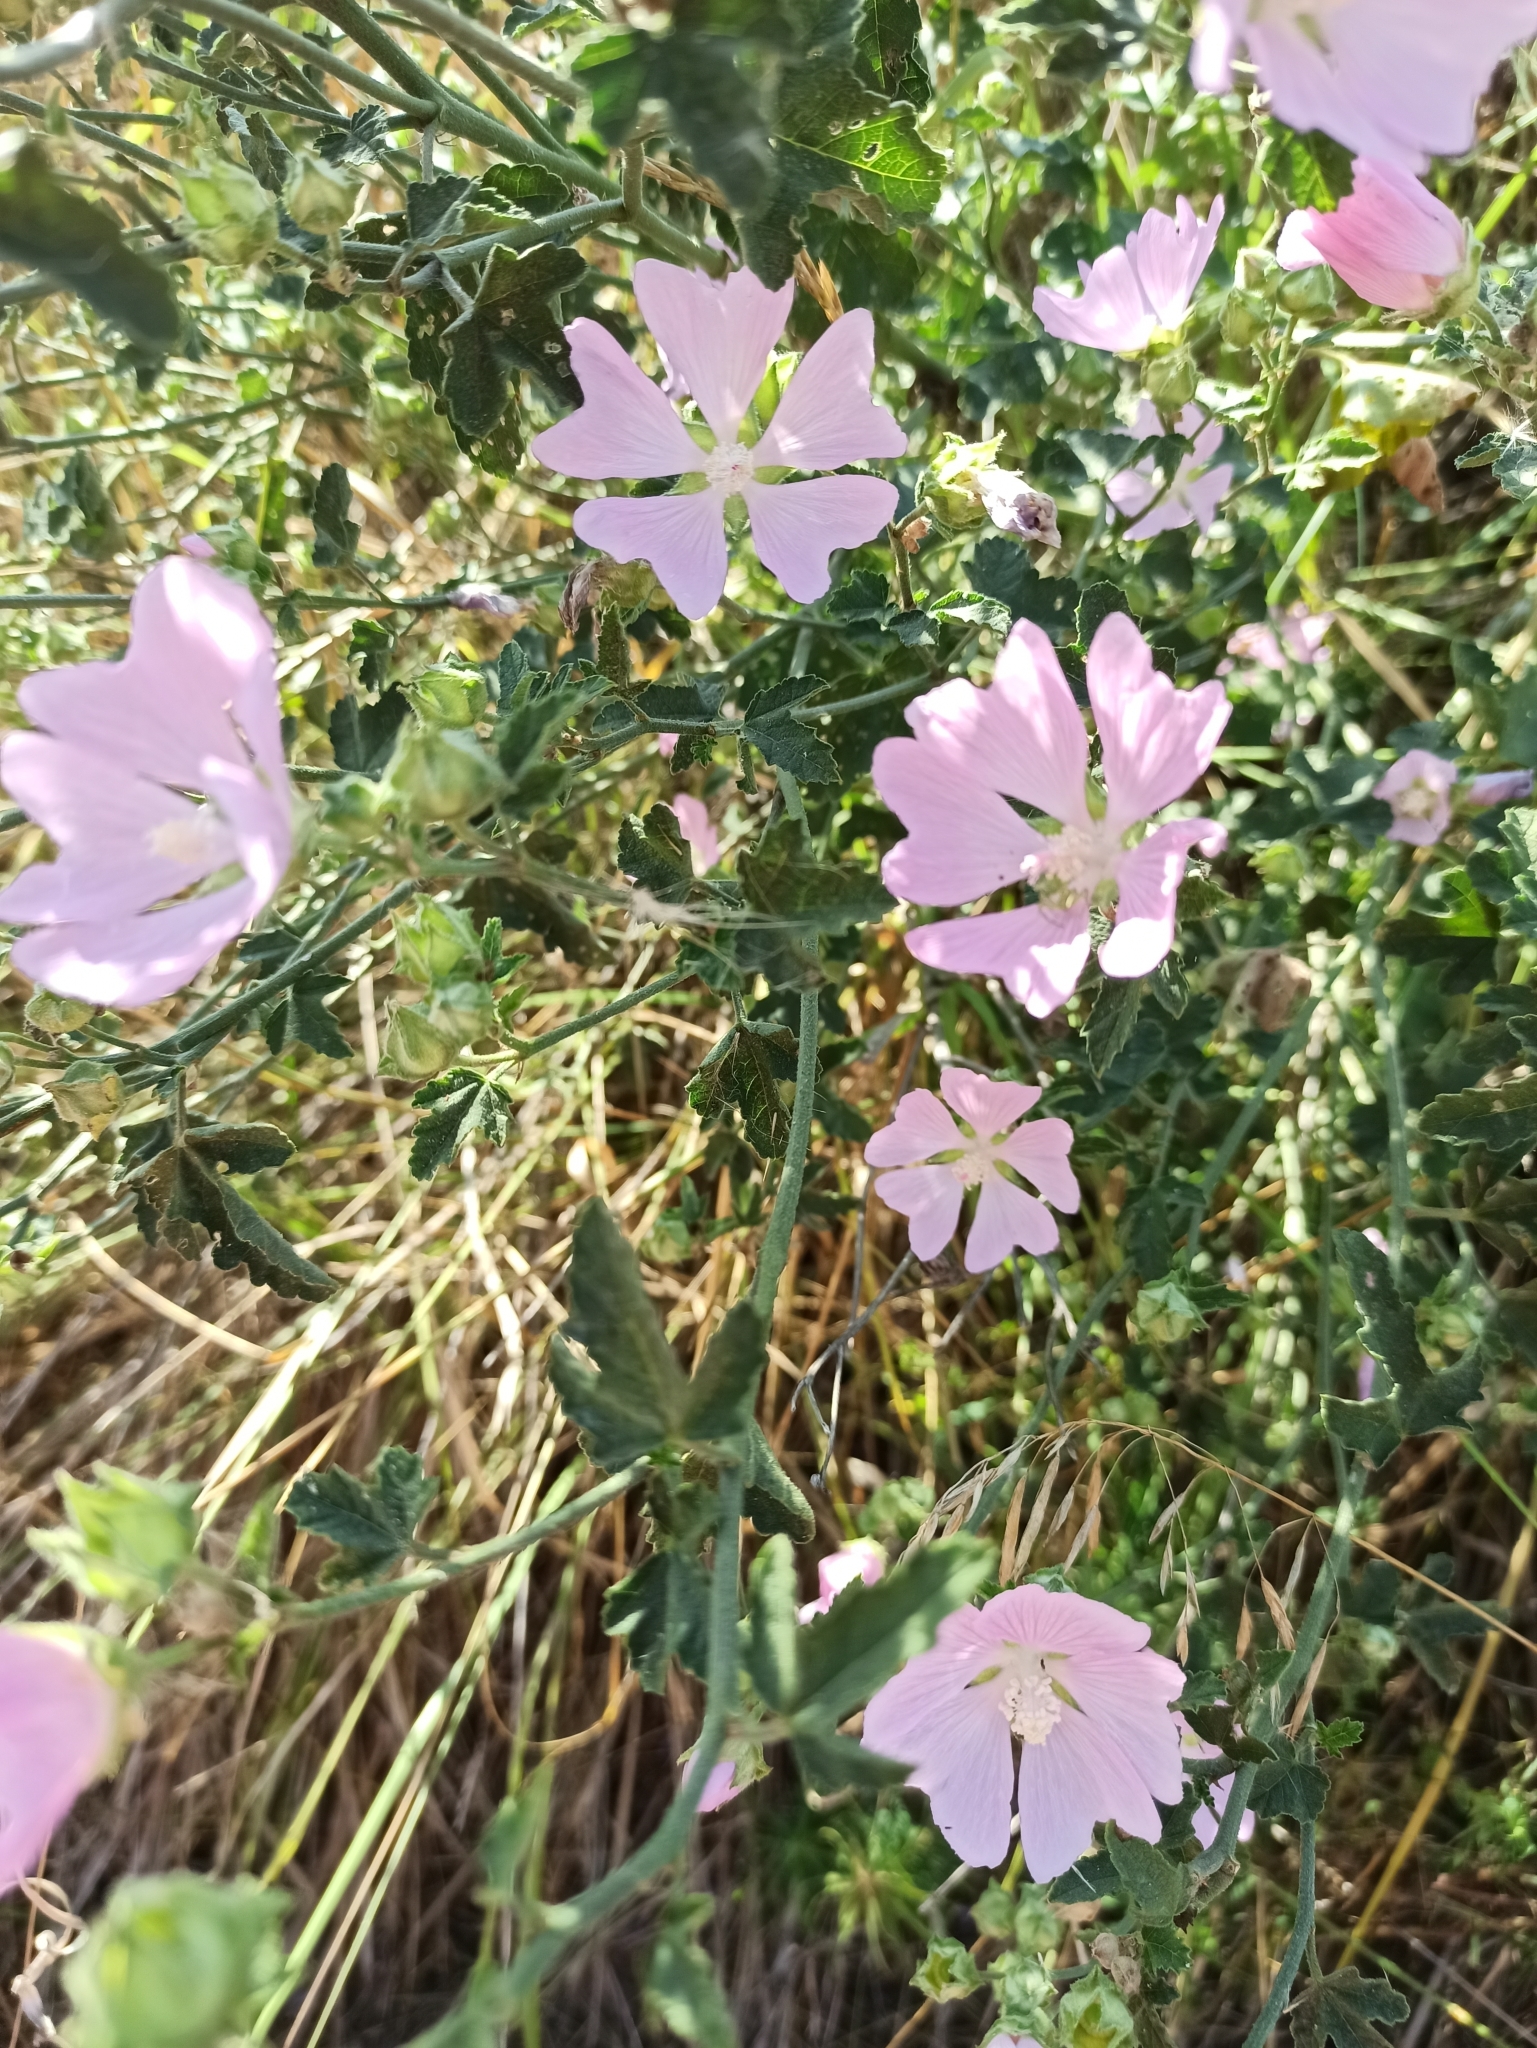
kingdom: Plantae
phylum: Tracheophyta
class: Magnoliopsida
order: Malvales
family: Malvaceae
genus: Malva
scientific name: Malva thuringiaca
